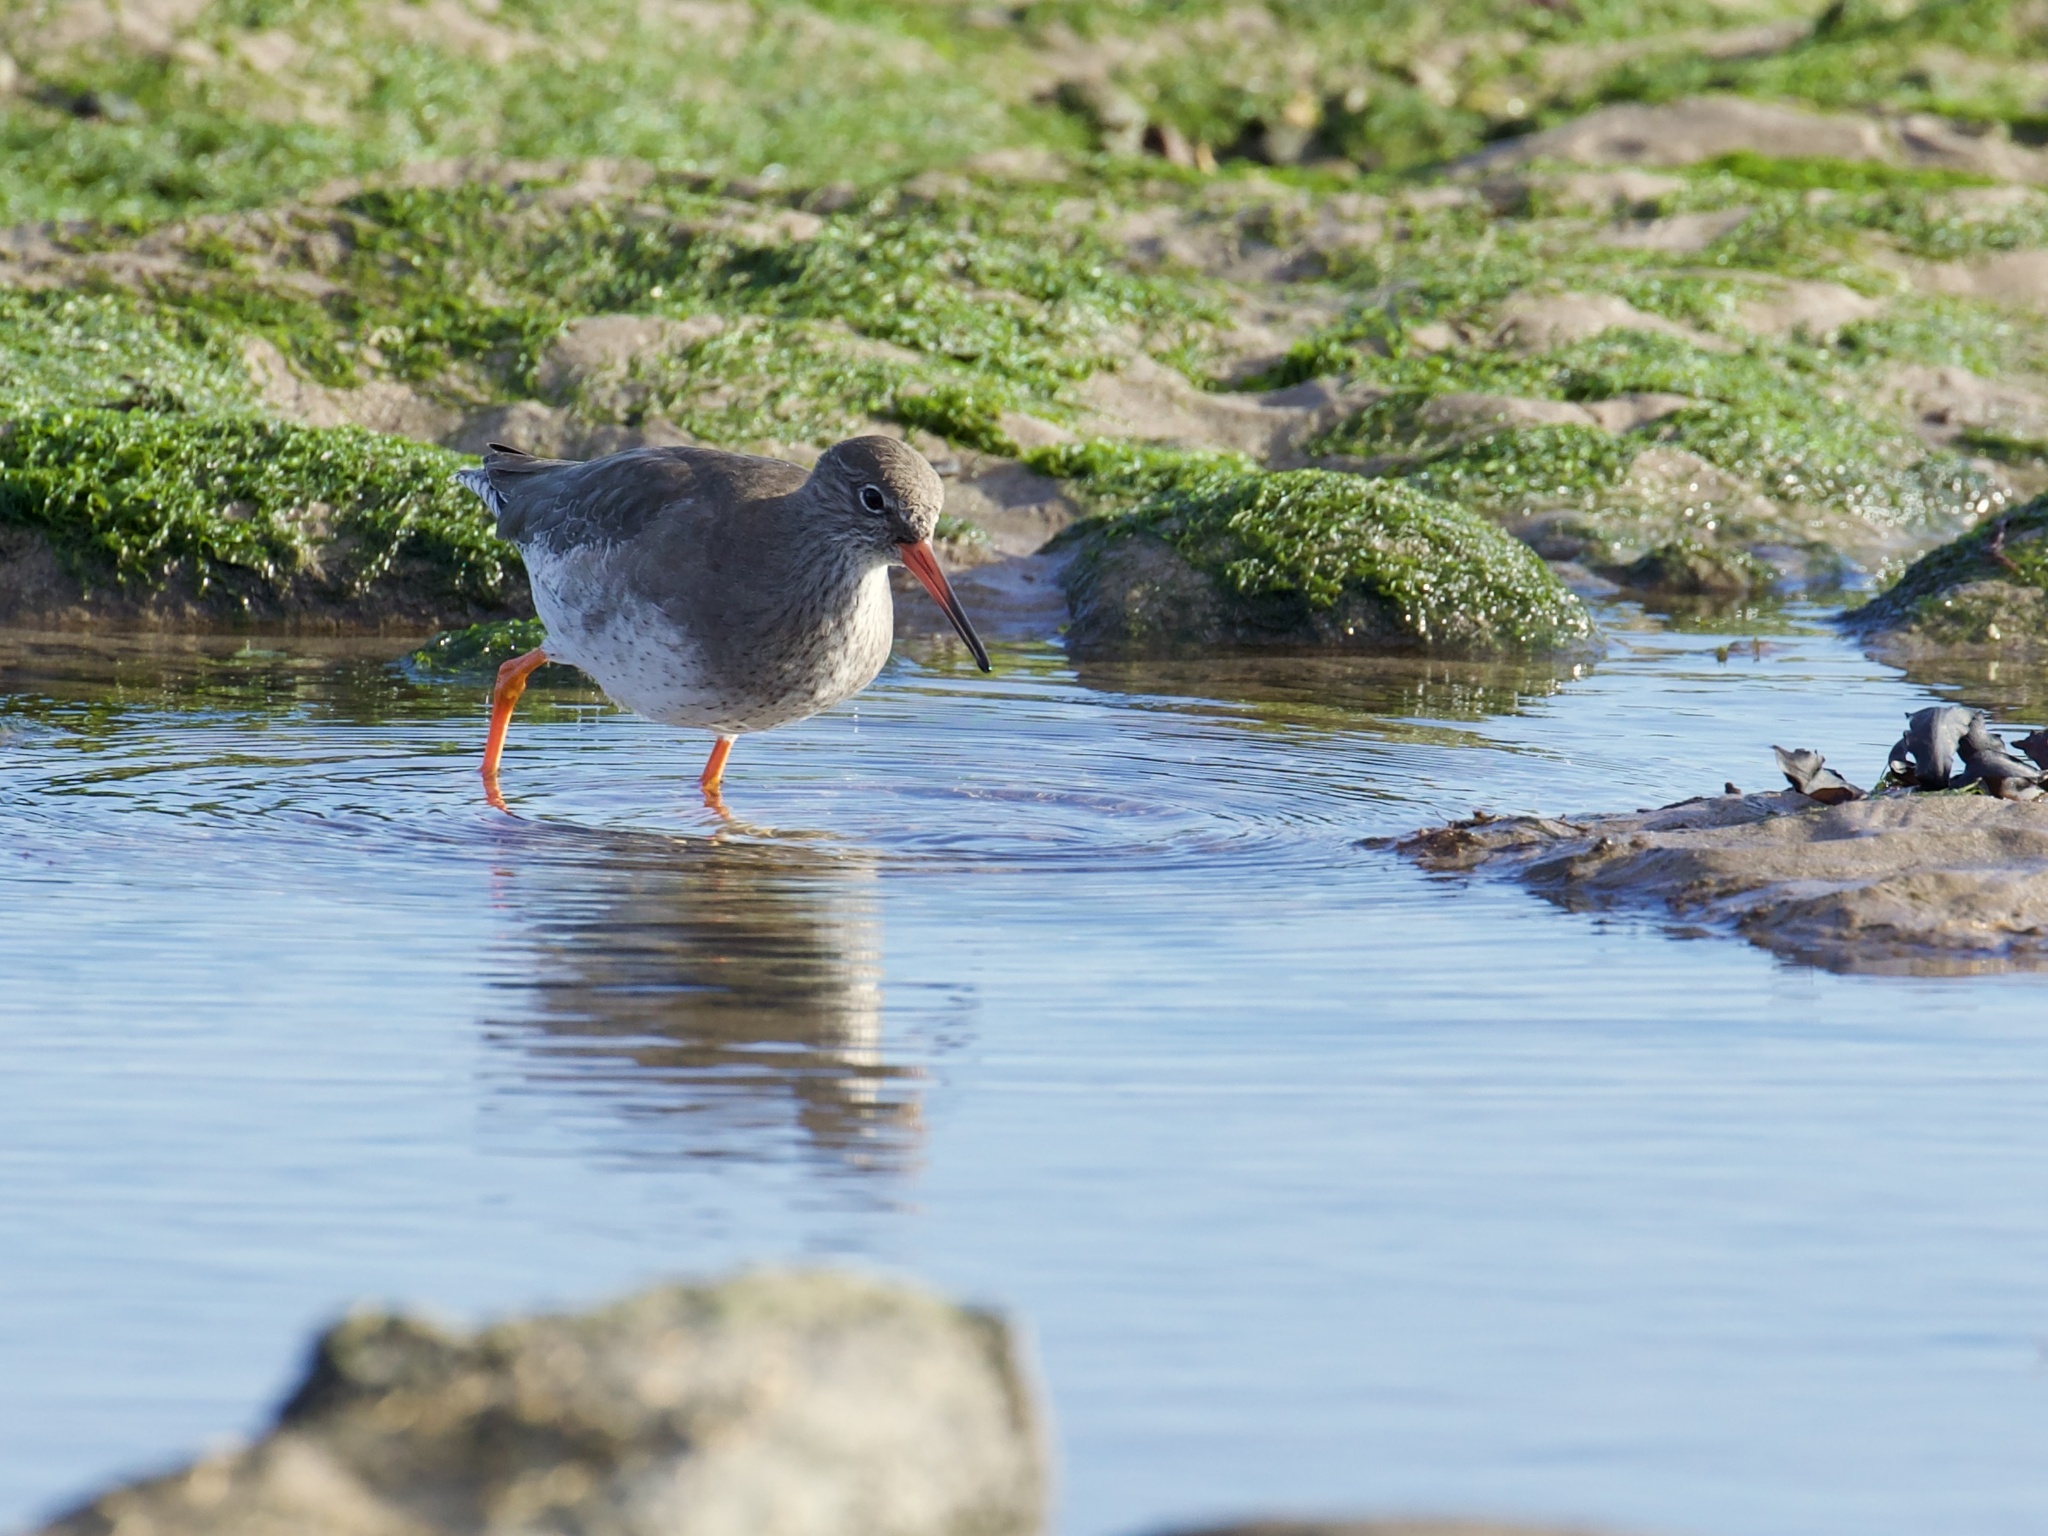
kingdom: Animalia
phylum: Chordata
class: Aves
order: Charadriiformes
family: Scolopacidae
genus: Tringa
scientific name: Tringa totanus
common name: Common redshank
